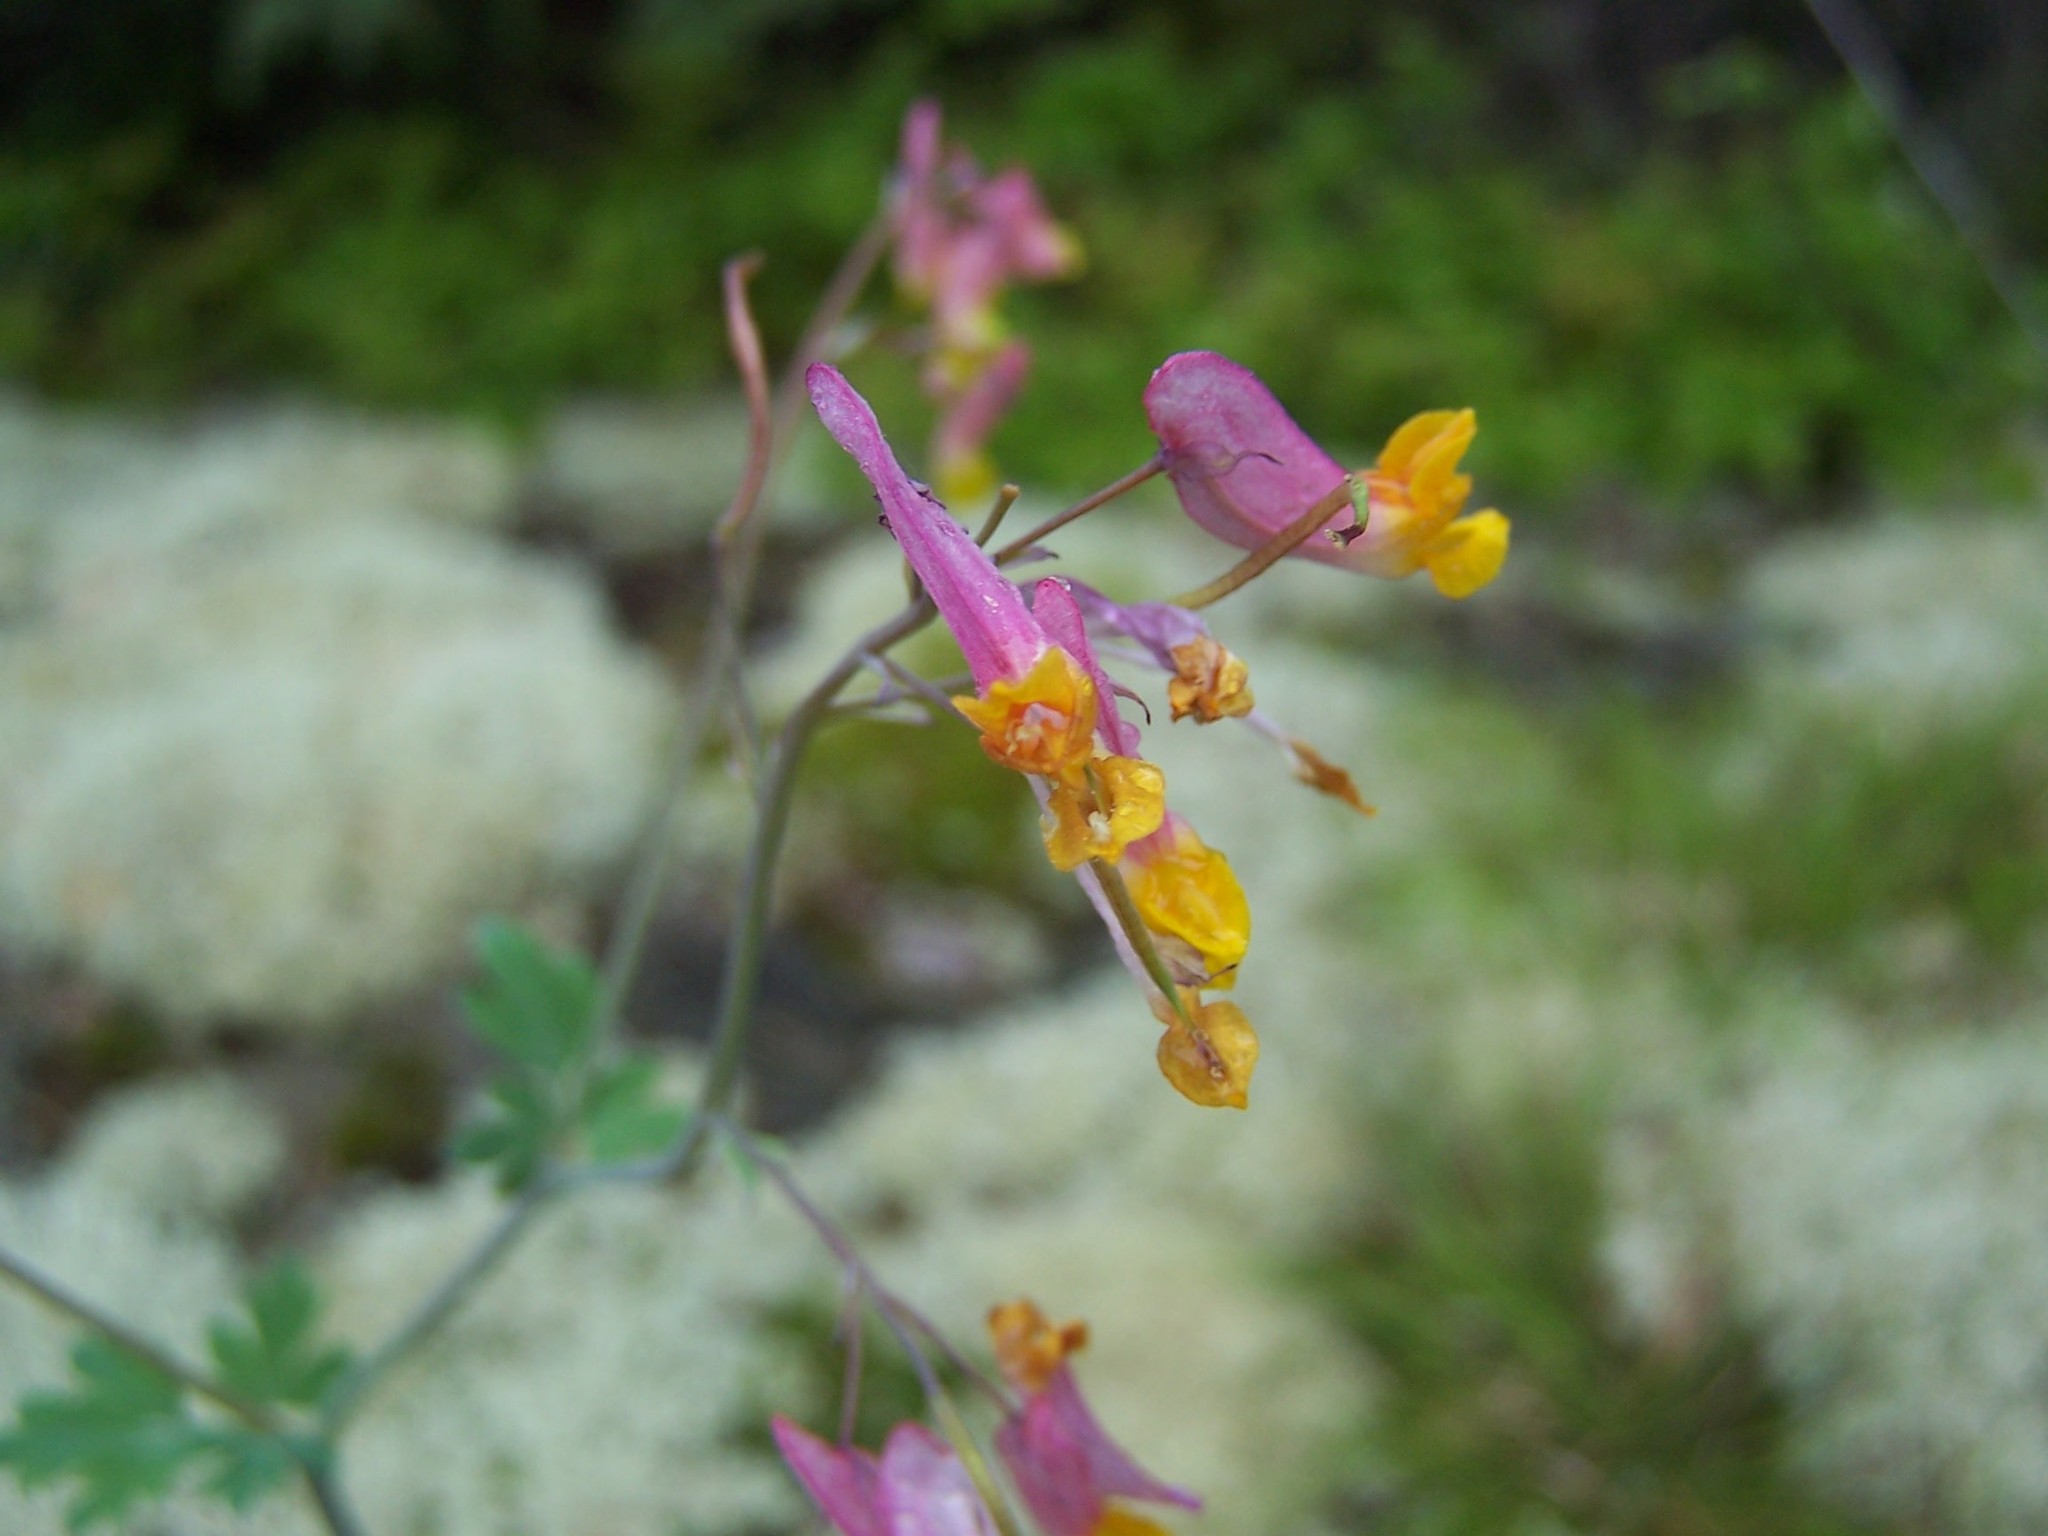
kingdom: Plantae
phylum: Tracheophyta
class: Magnoliopsida
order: Ranunculales
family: Papaveraceae
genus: Capnoides
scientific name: Capnoides sempervirens
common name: Rock harlequin
